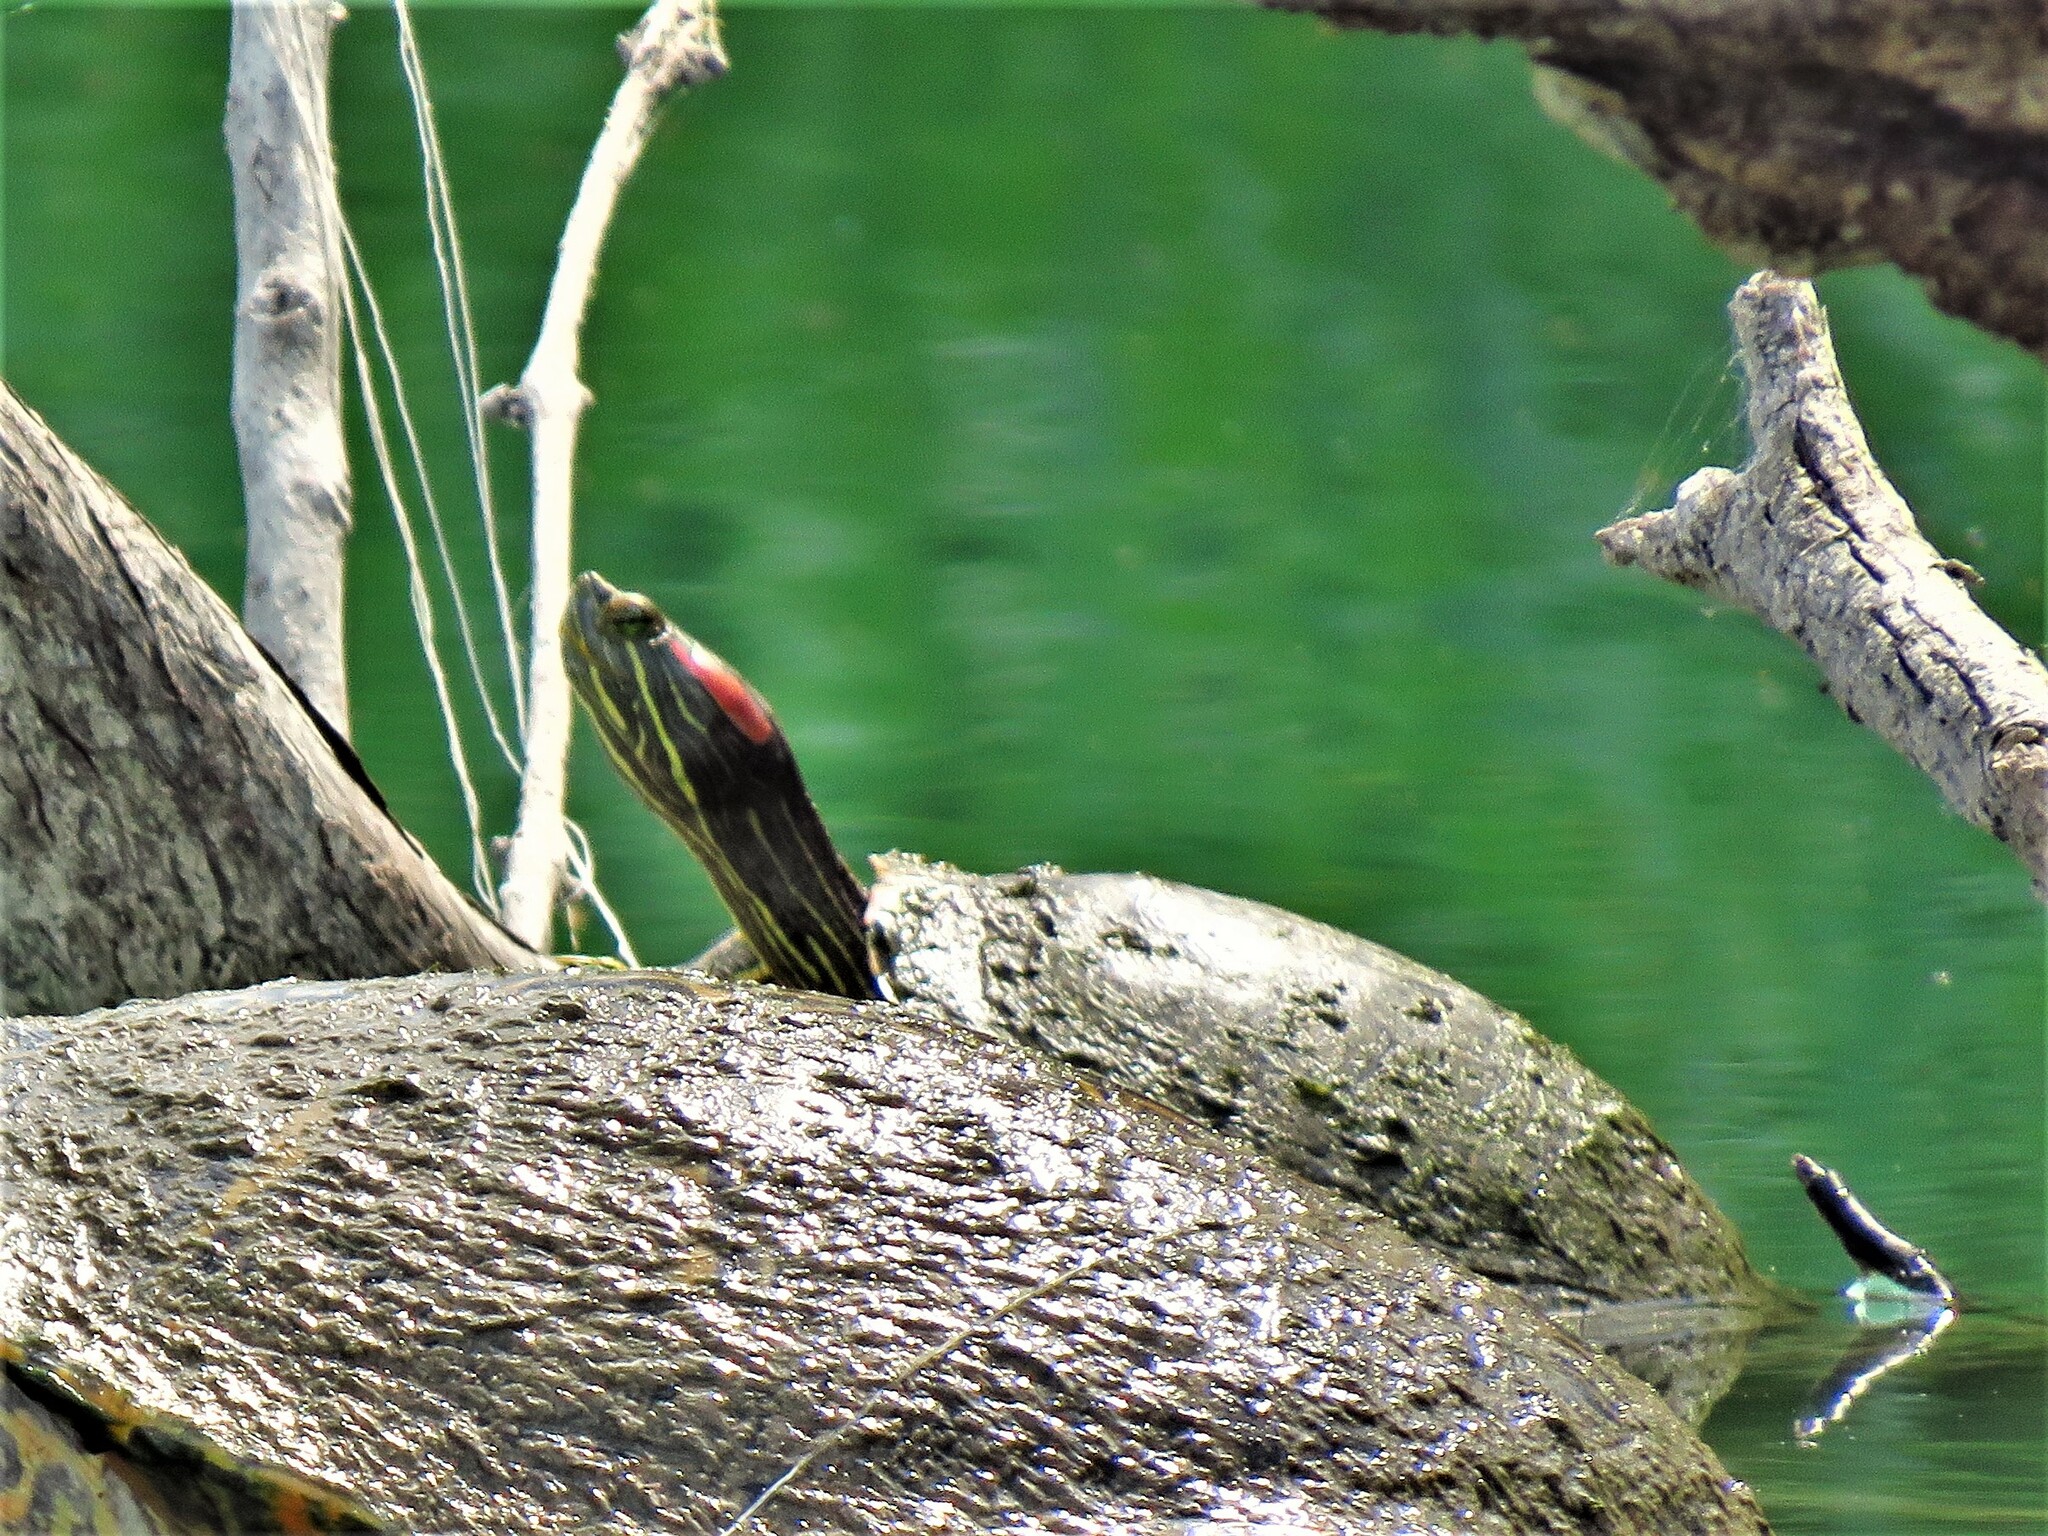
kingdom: Animalia
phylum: Chordata
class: Testudines
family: Emydidae
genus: Trachemys
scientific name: Trachemys scripta
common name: Slider
